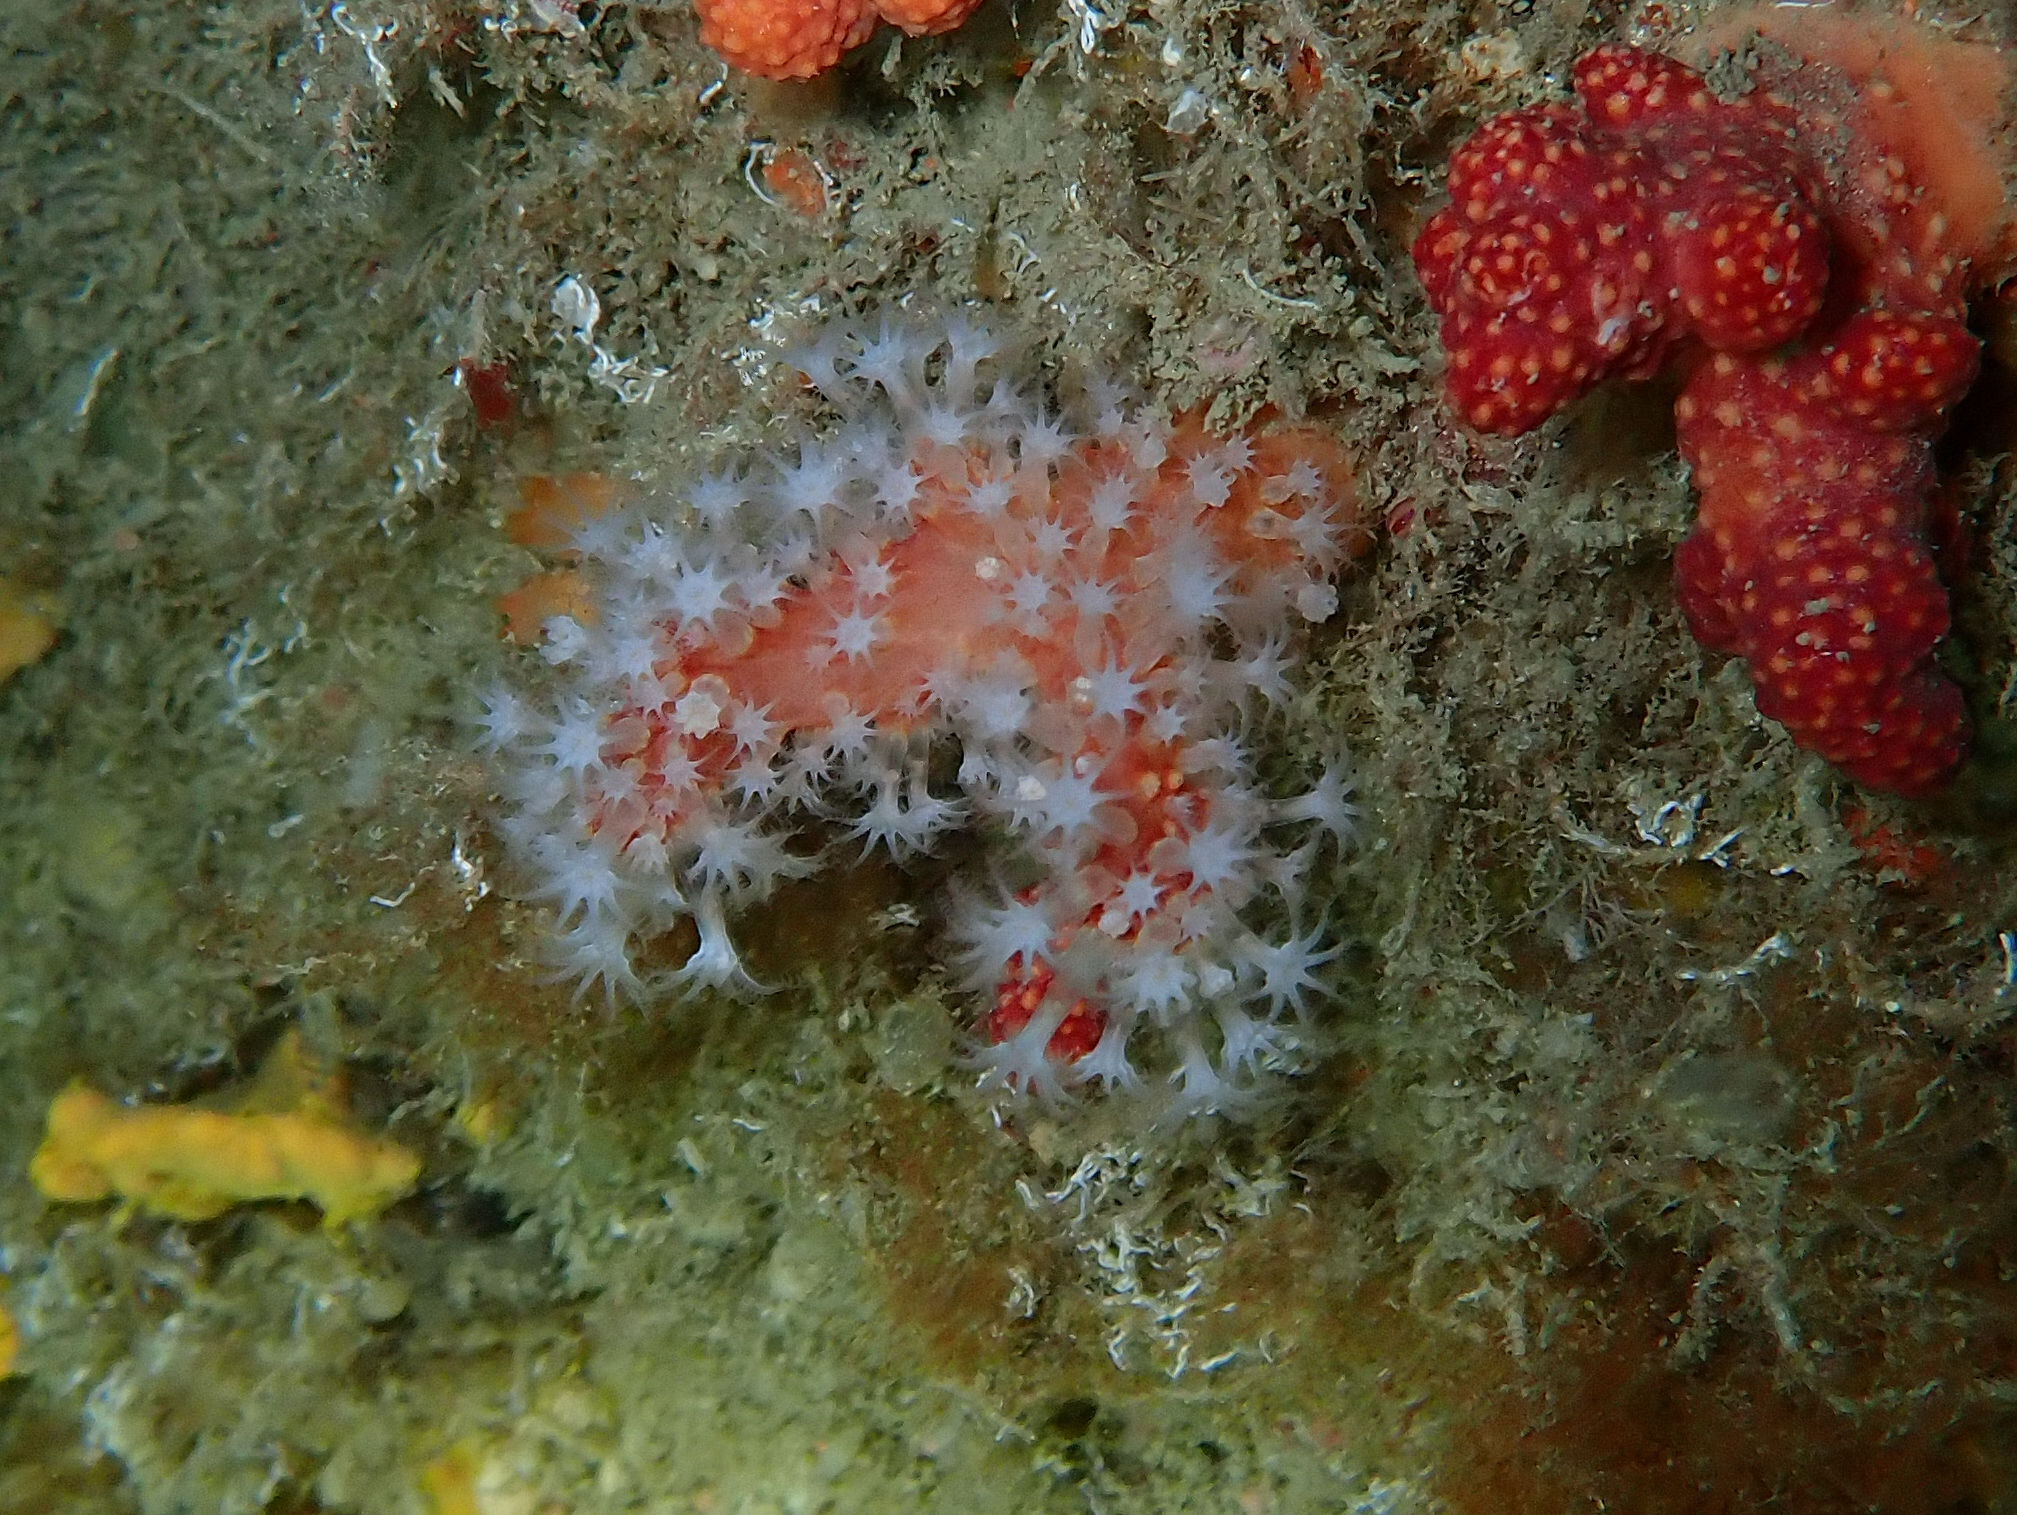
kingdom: Animalia
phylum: Cnidaria
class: Anthozoa
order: Malacalcyonacea
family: Alcyoniidae
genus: Alcyonium
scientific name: Alcyonium glomeratum
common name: Red fingers
